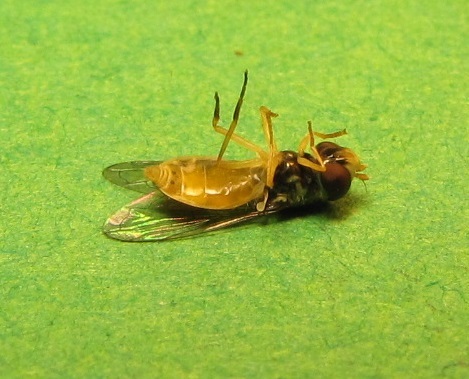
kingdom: Animalia
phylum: Arthropoda
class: Insecta
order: Diptera
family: Syrphidae
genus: Toxomerus
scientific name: Toxomerus marginatus
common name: Syrphid fly
